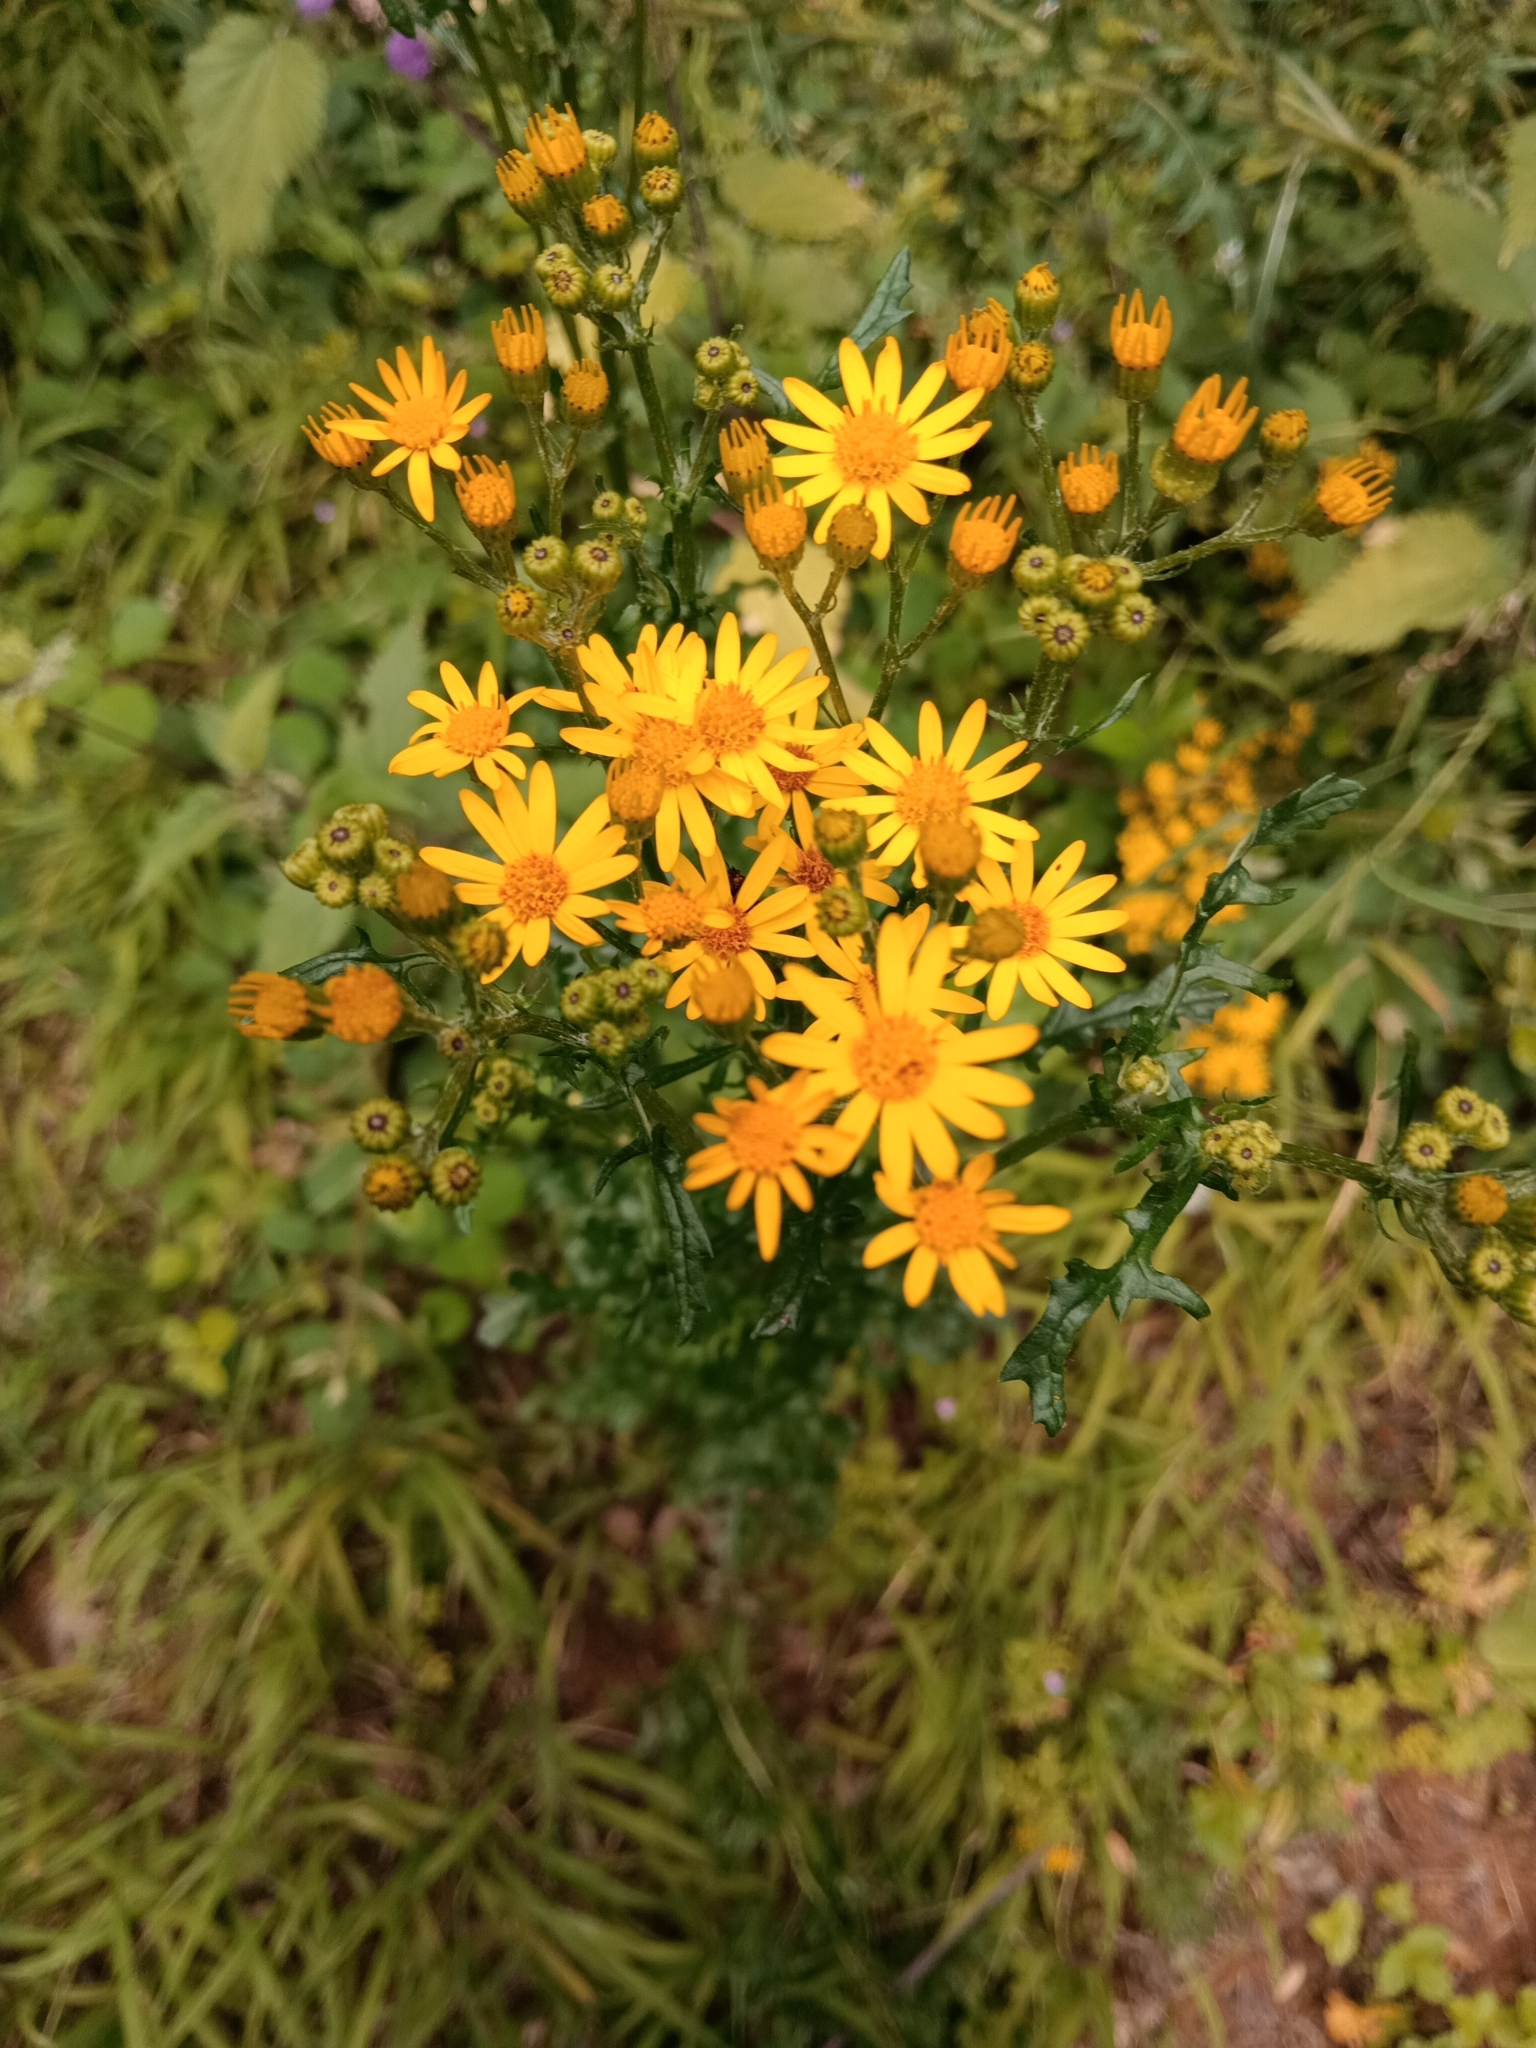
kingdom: Plantae
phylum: Tracheophyta
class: Magnoliopsida
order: Asterales
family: Asteraceae
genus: Jacobaea
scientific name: Jacobaea vulgaris
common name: Stinking willie
